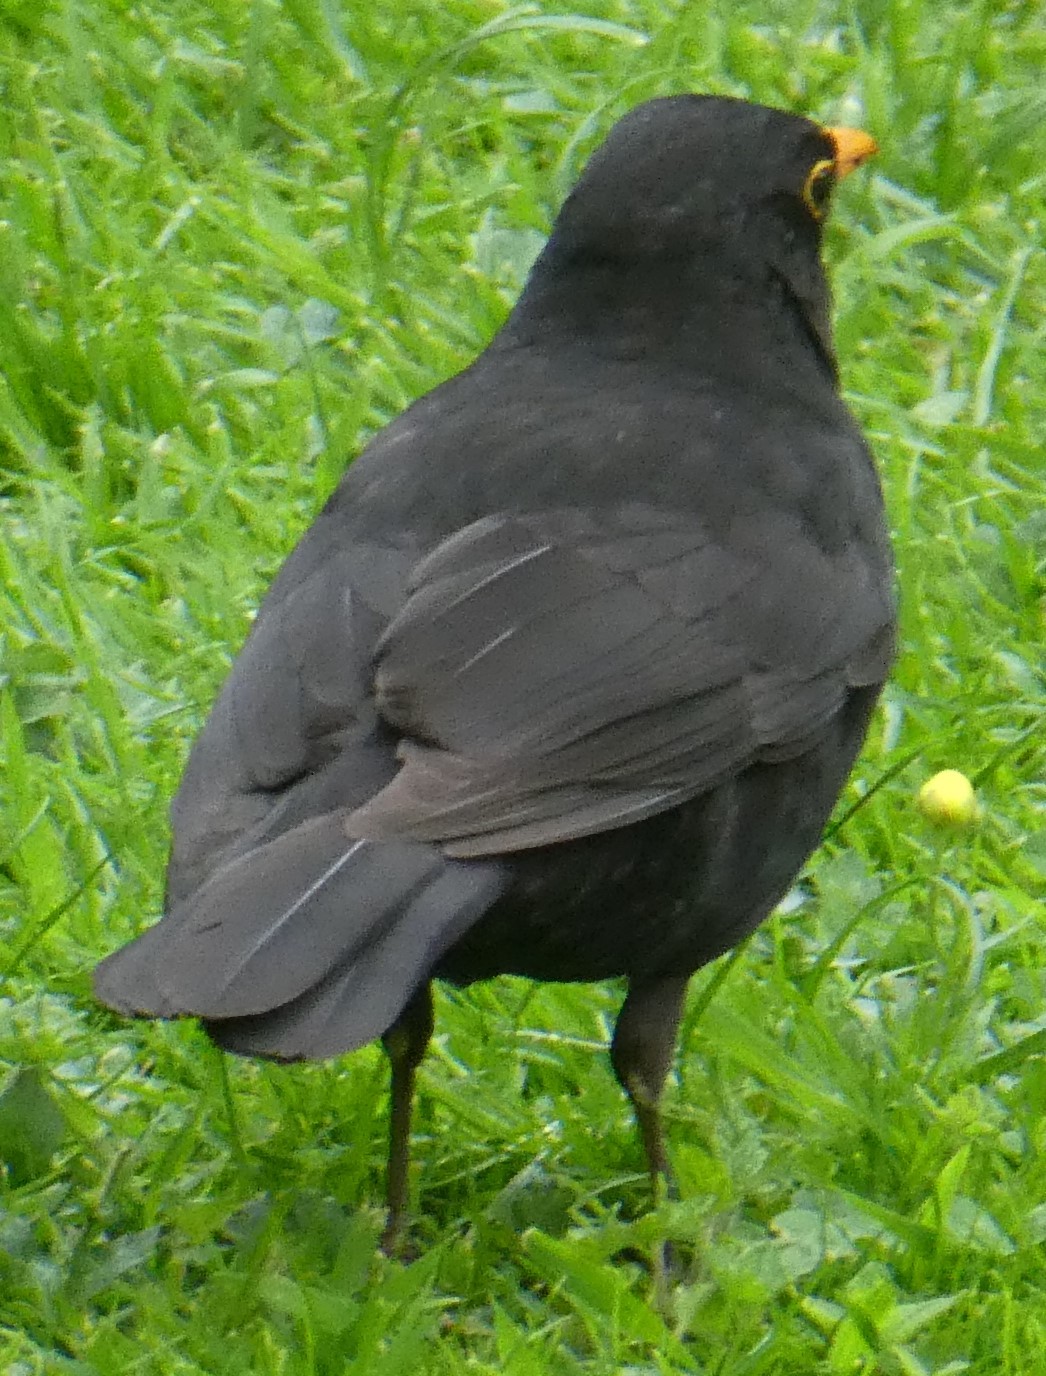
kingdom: Animalia
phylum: Chordata
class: Aves
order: Passeriformes
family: Turdidae
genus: Turdus
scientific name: Turdus merula
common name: Common blackbird
